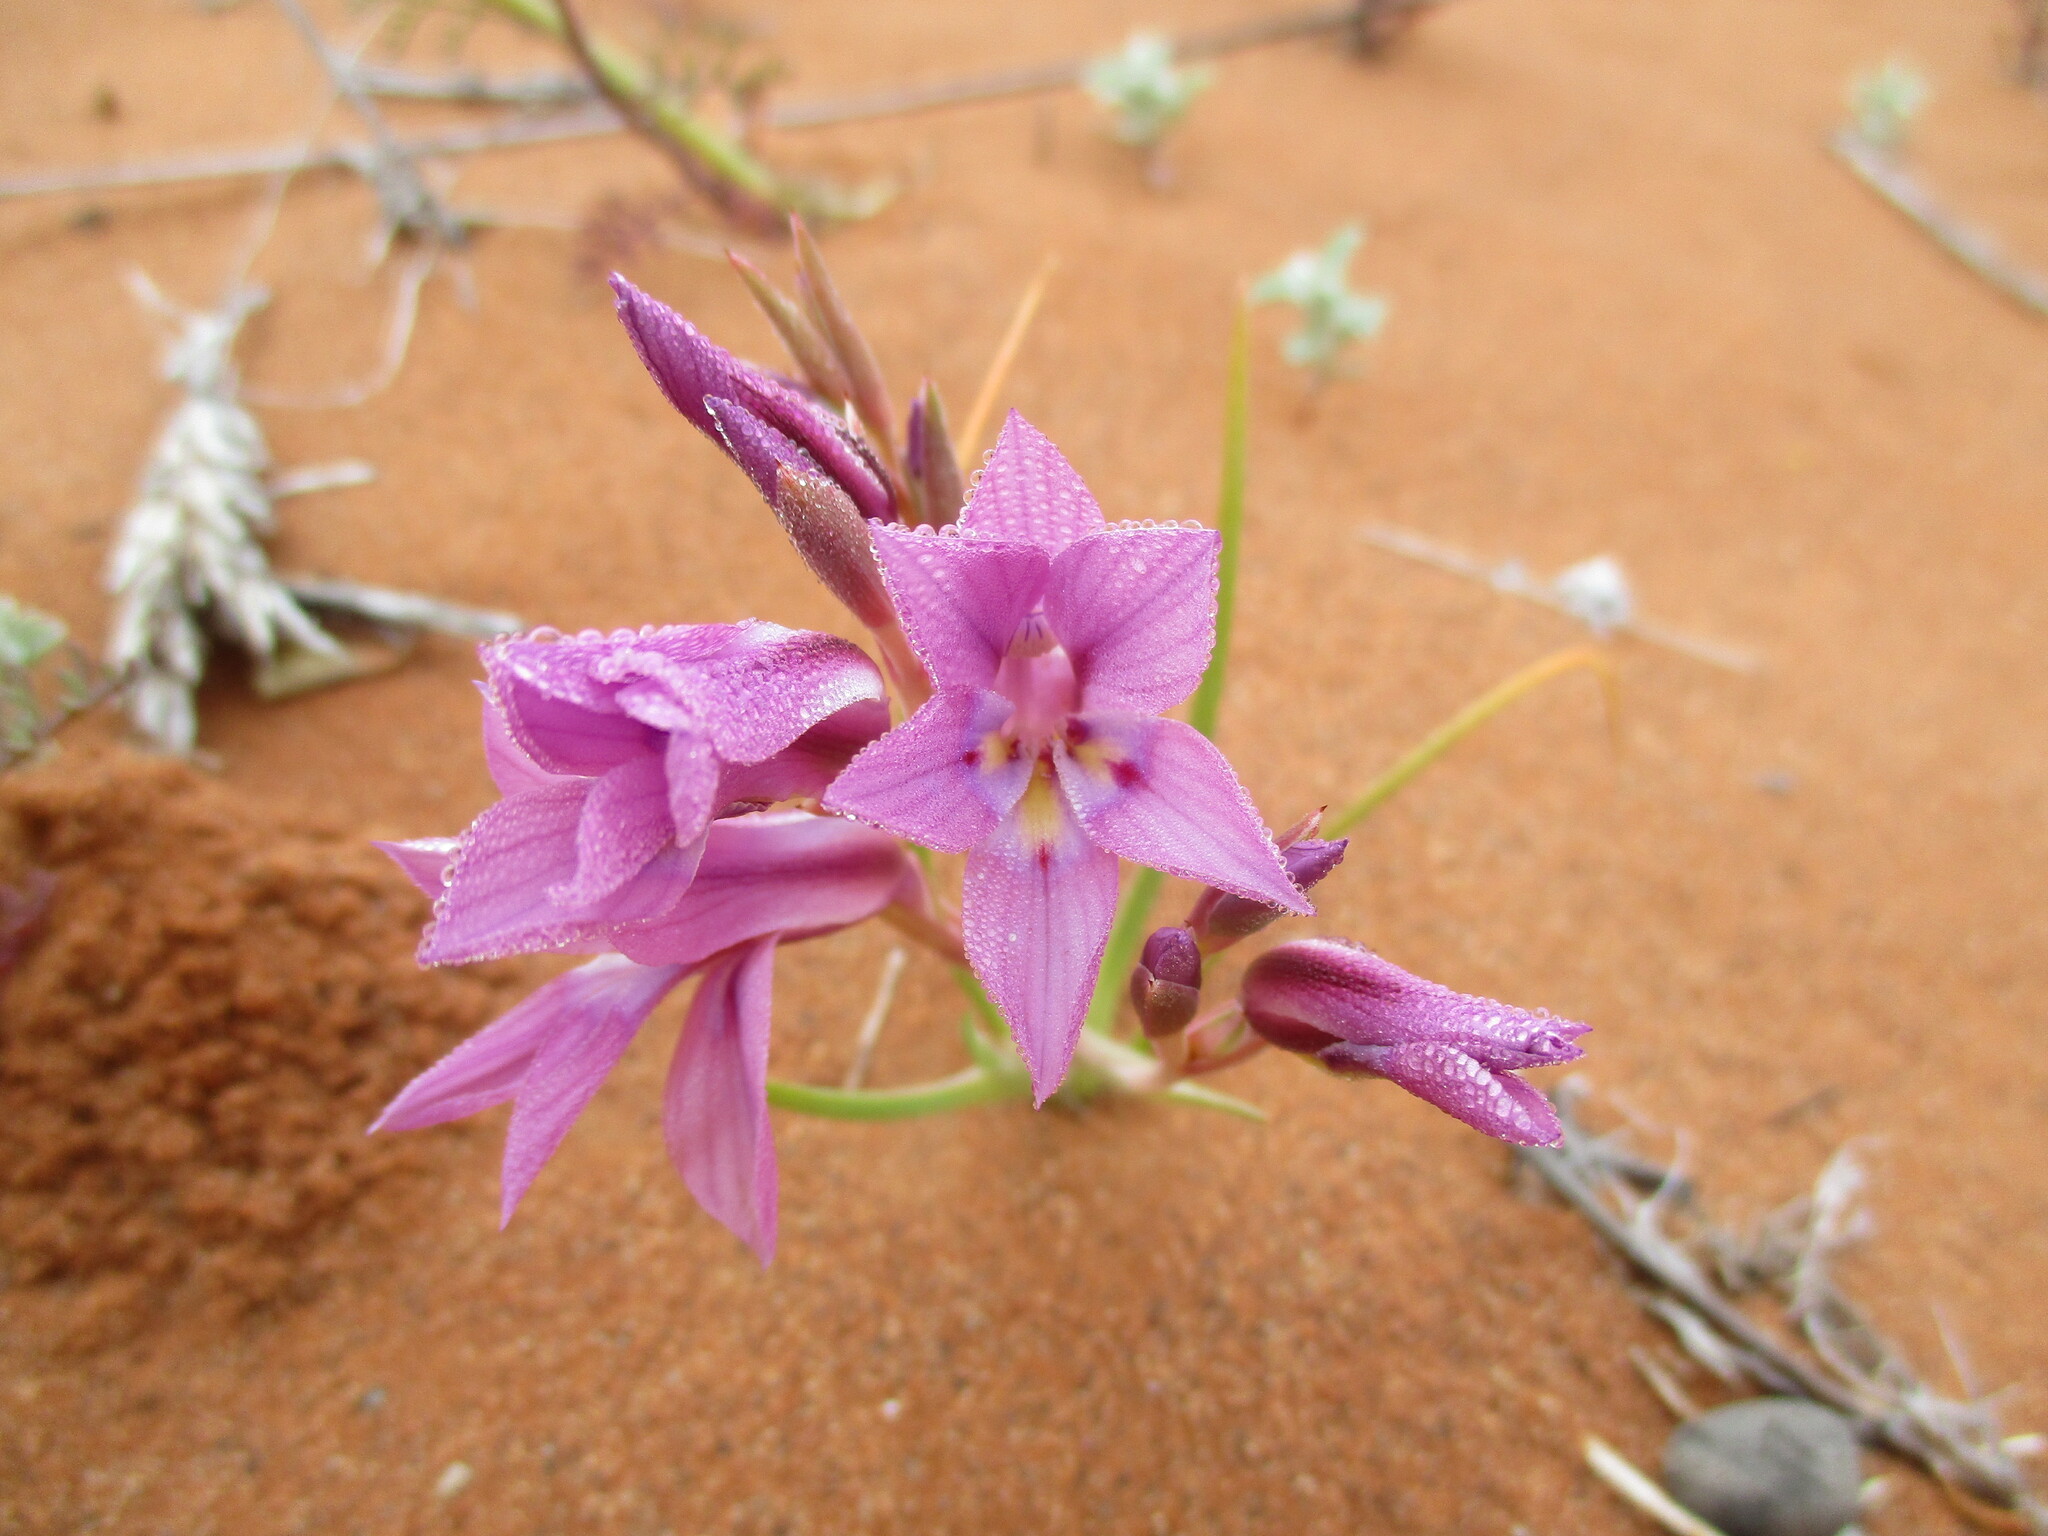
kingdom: Plantae
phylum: Tracheophyta
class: Liliopsida
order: Asparagales
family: Iridaceae
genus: Lapeirousia
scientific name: Lapeirousia barklyi
